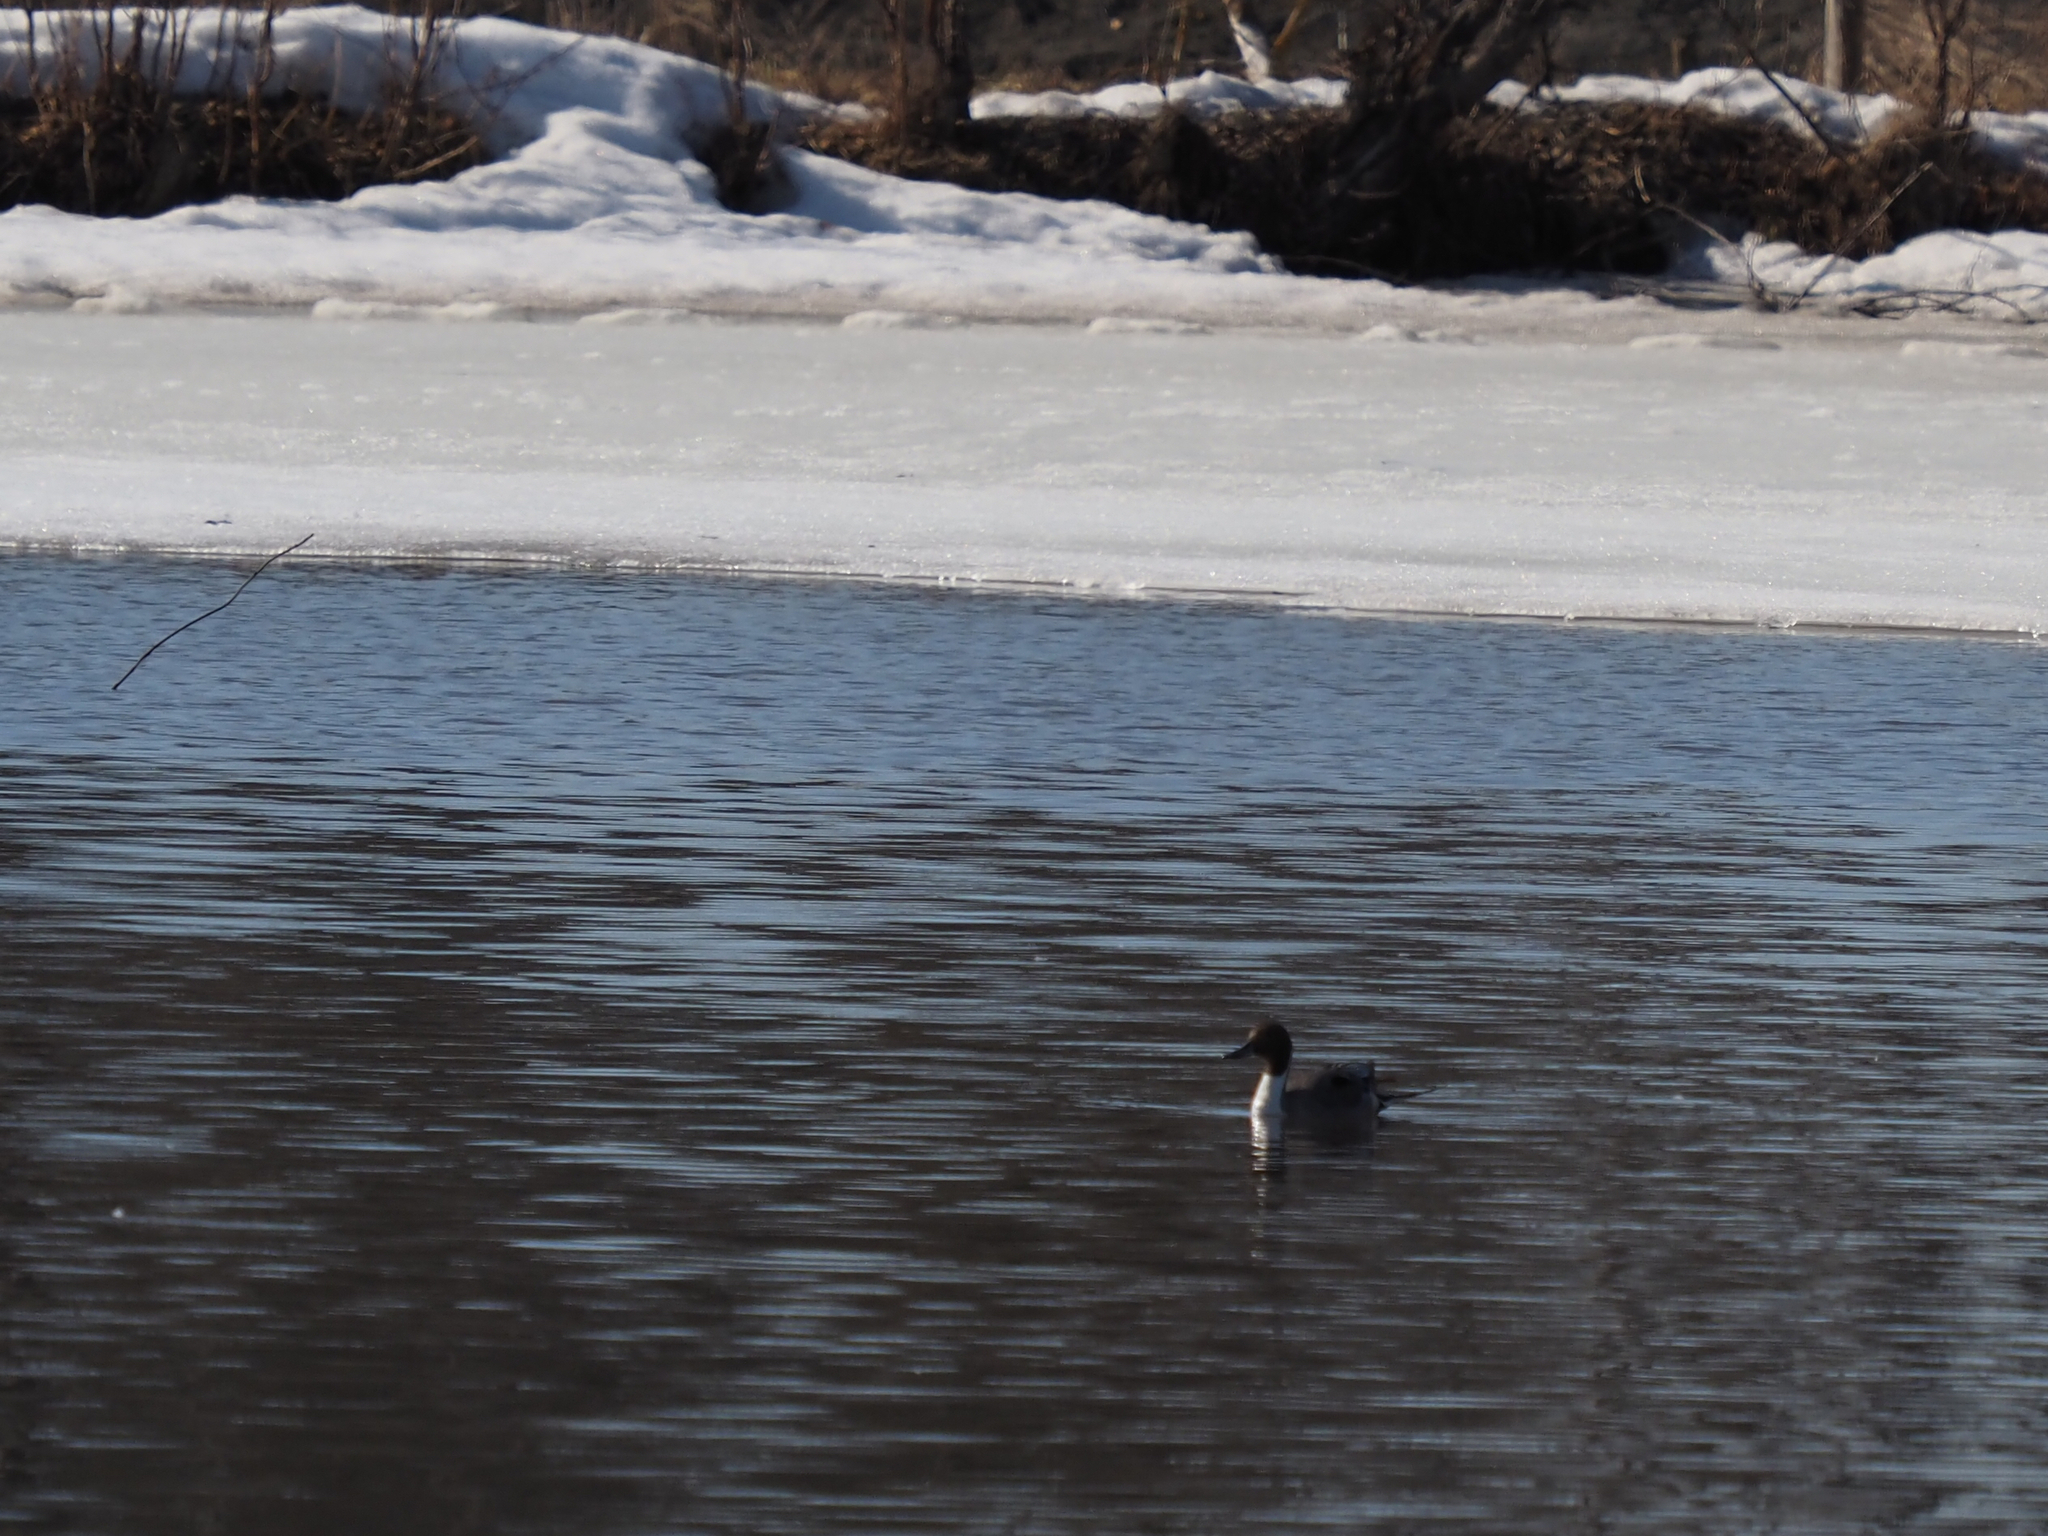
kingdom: Animalia
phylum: Chordata
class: Aves
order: Anseriformes
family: Anatidae
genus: Anas
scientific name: Anas acuta
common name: Northern pintail
